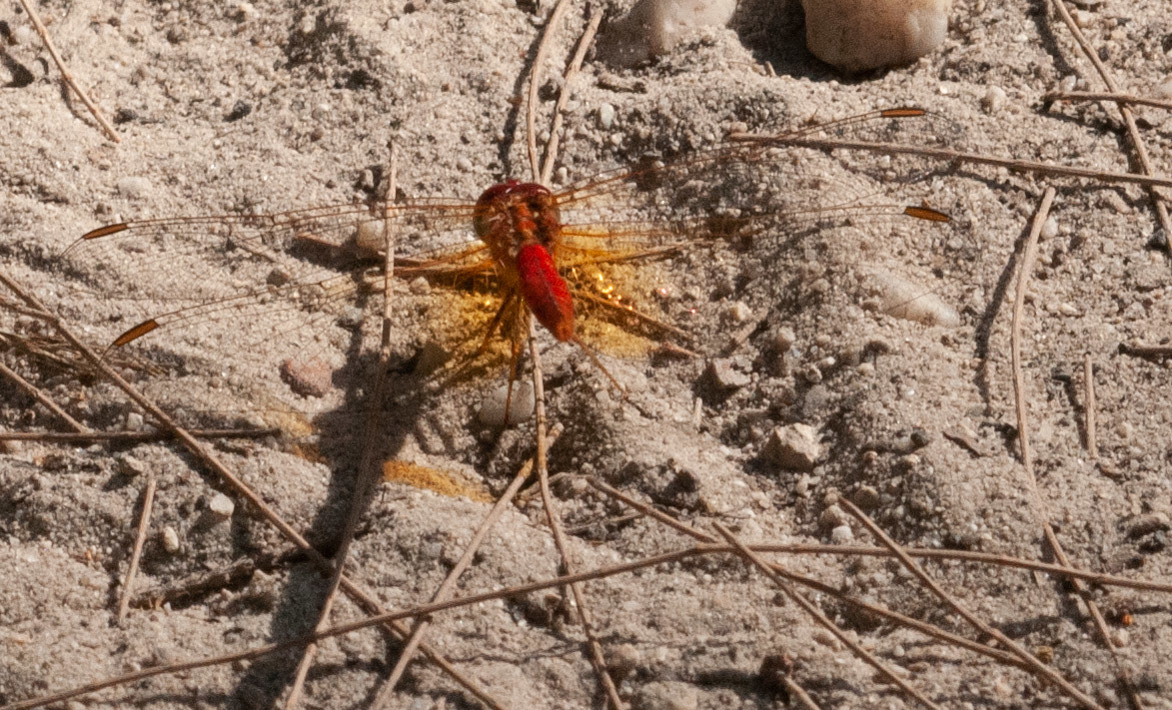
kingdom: Animalia
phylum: Arthropoda
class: Insecta
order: Odonata
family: Libellulidae
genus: Diplacodes
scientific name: Diplacodes haematodes
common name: Scarlet percher
